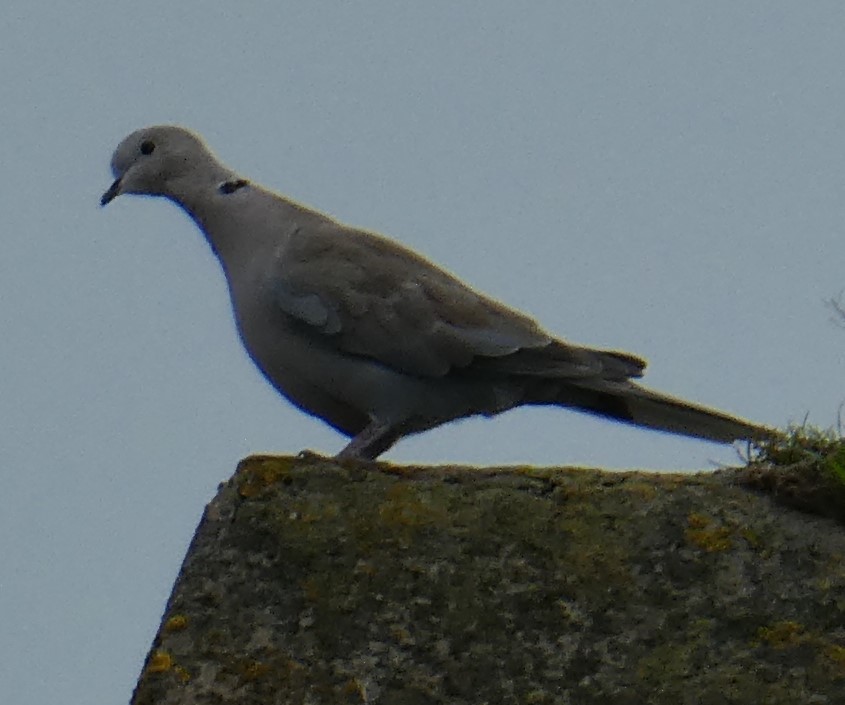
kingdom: Animalia
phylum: Chordata
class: Aves
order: Columbiformes
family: Columbidae
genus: Streptopelia
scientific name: Streptopelia decaocto
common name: Eurasian collared dove
